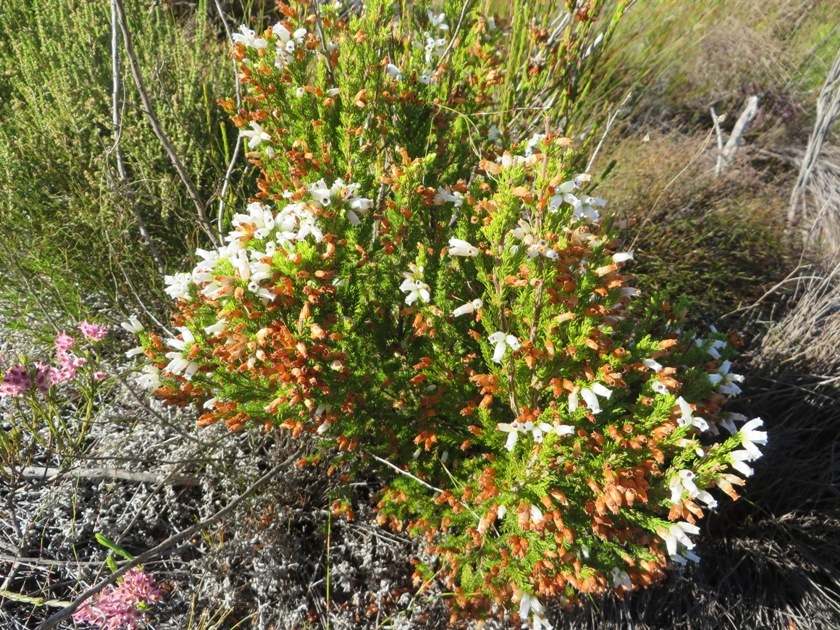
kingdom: Plantae
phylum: Tracheophyta
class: Magnoliopsida
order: Ericales
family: Ericaceae
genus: Erica
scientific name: Erica sitiens
